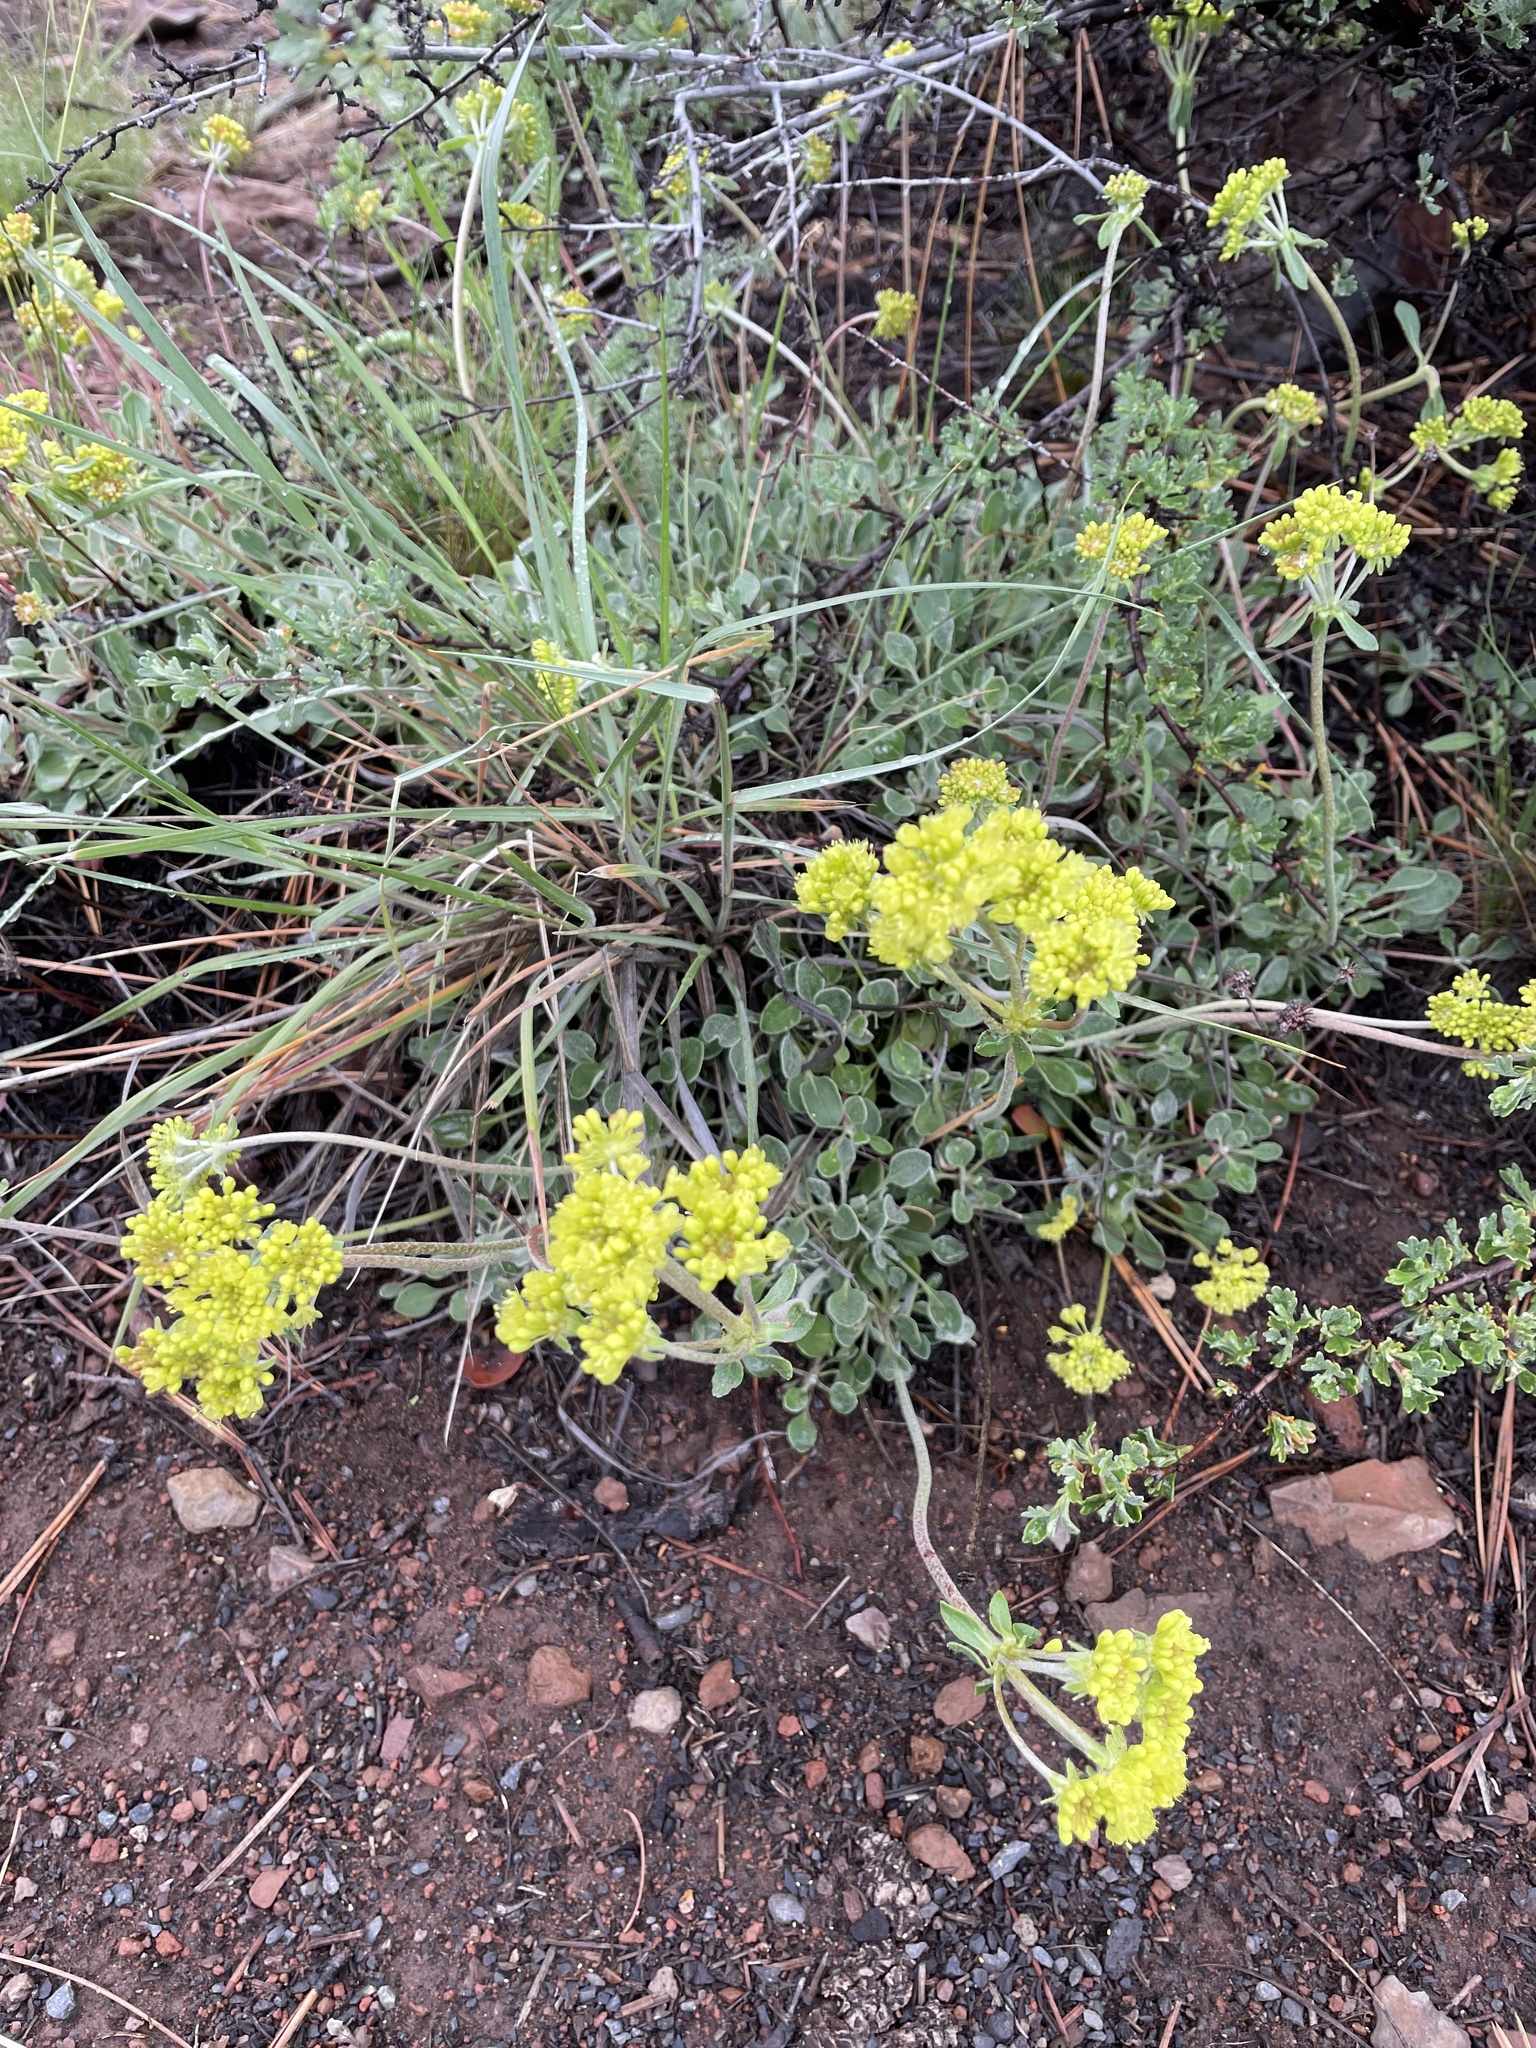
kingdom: Plantae
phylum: Tracheophyta
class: Magnoliopsida
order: Caryophyllales
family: Polygonaceae
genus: Eriogonum
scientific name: Eriogonum umbellatum
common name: Sulfur-buckwheat
